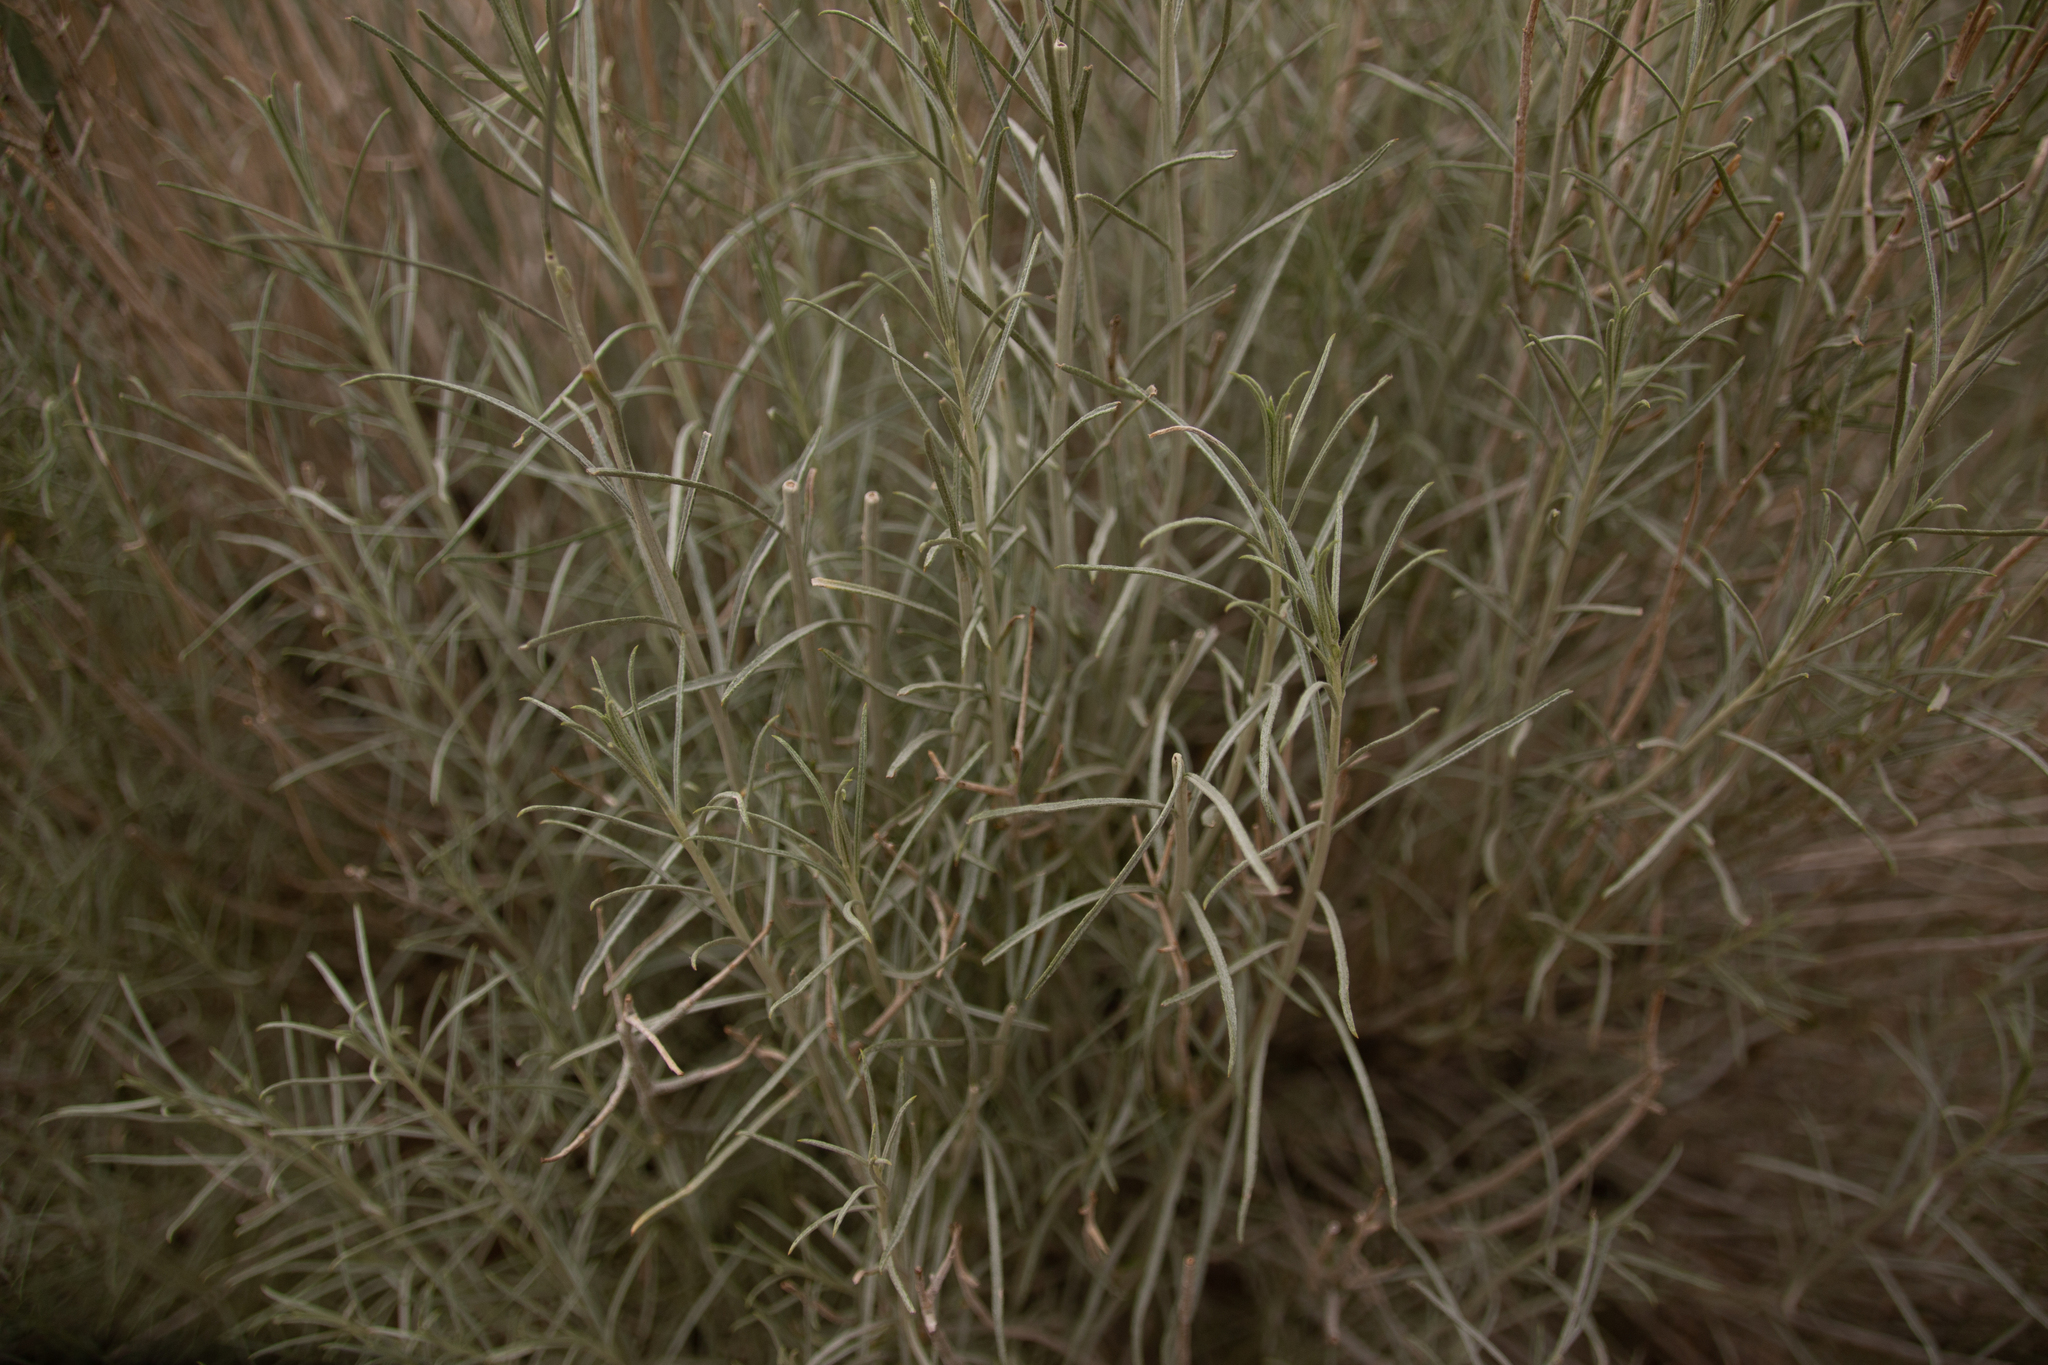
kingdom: Plantae
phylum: Tracheophyta
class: Magnoliopsida
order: Asterales
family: Asteraceae
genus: Ericameria
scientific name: Ericameria nauseosa
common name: Rubber rabbitbrush
